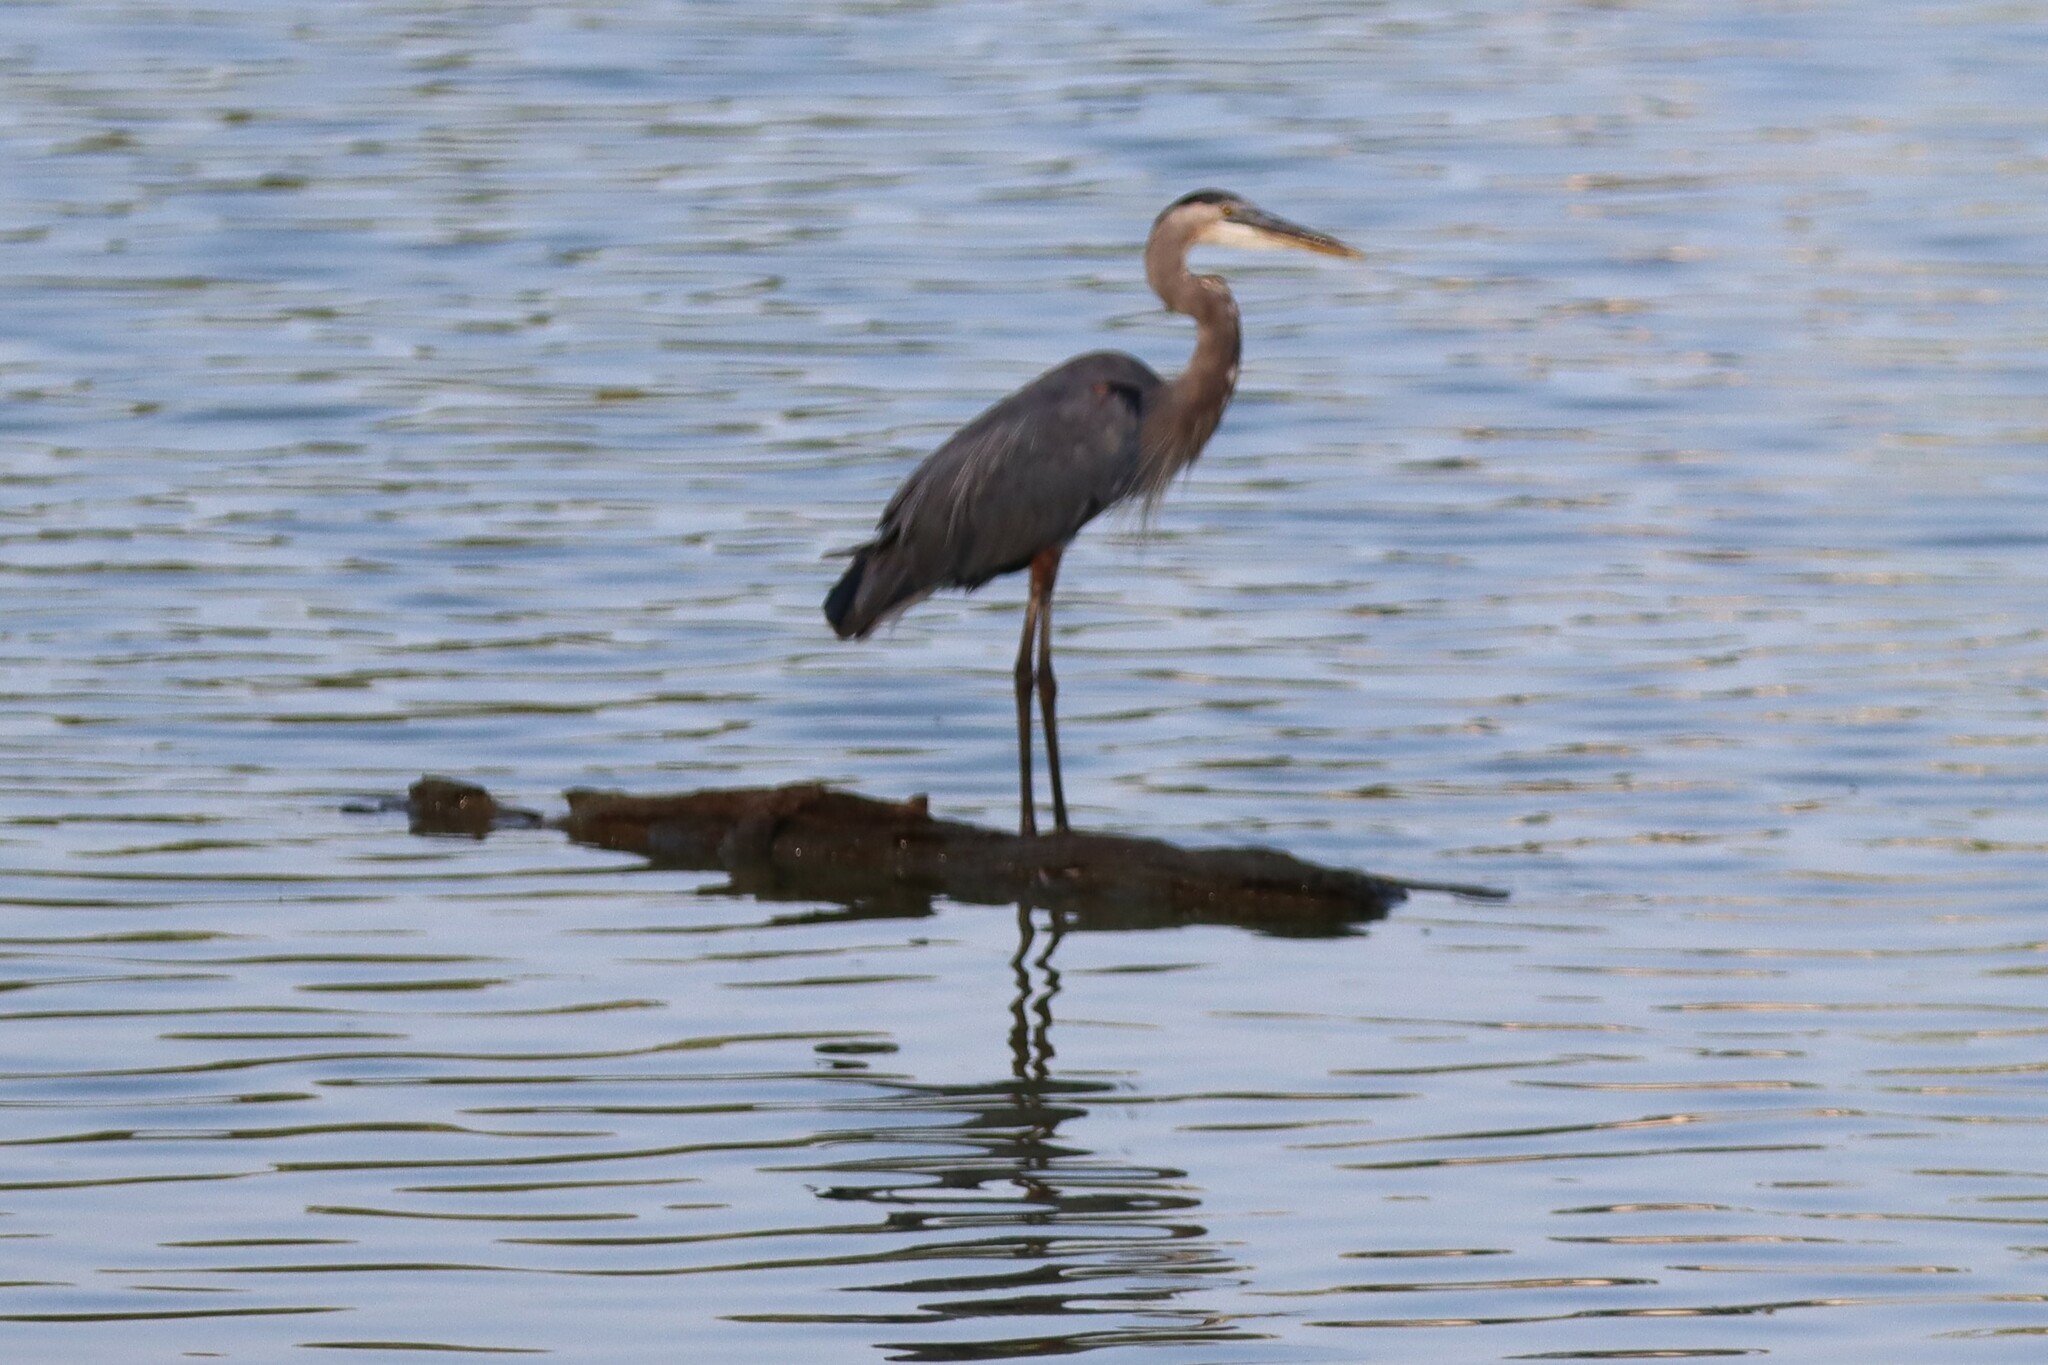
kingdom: Animalia
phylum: Chordata
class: Aves
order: Pelecaniformes
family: Ardeidae
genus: Ardea
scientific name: Ardea herodias
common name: Great blue heron
